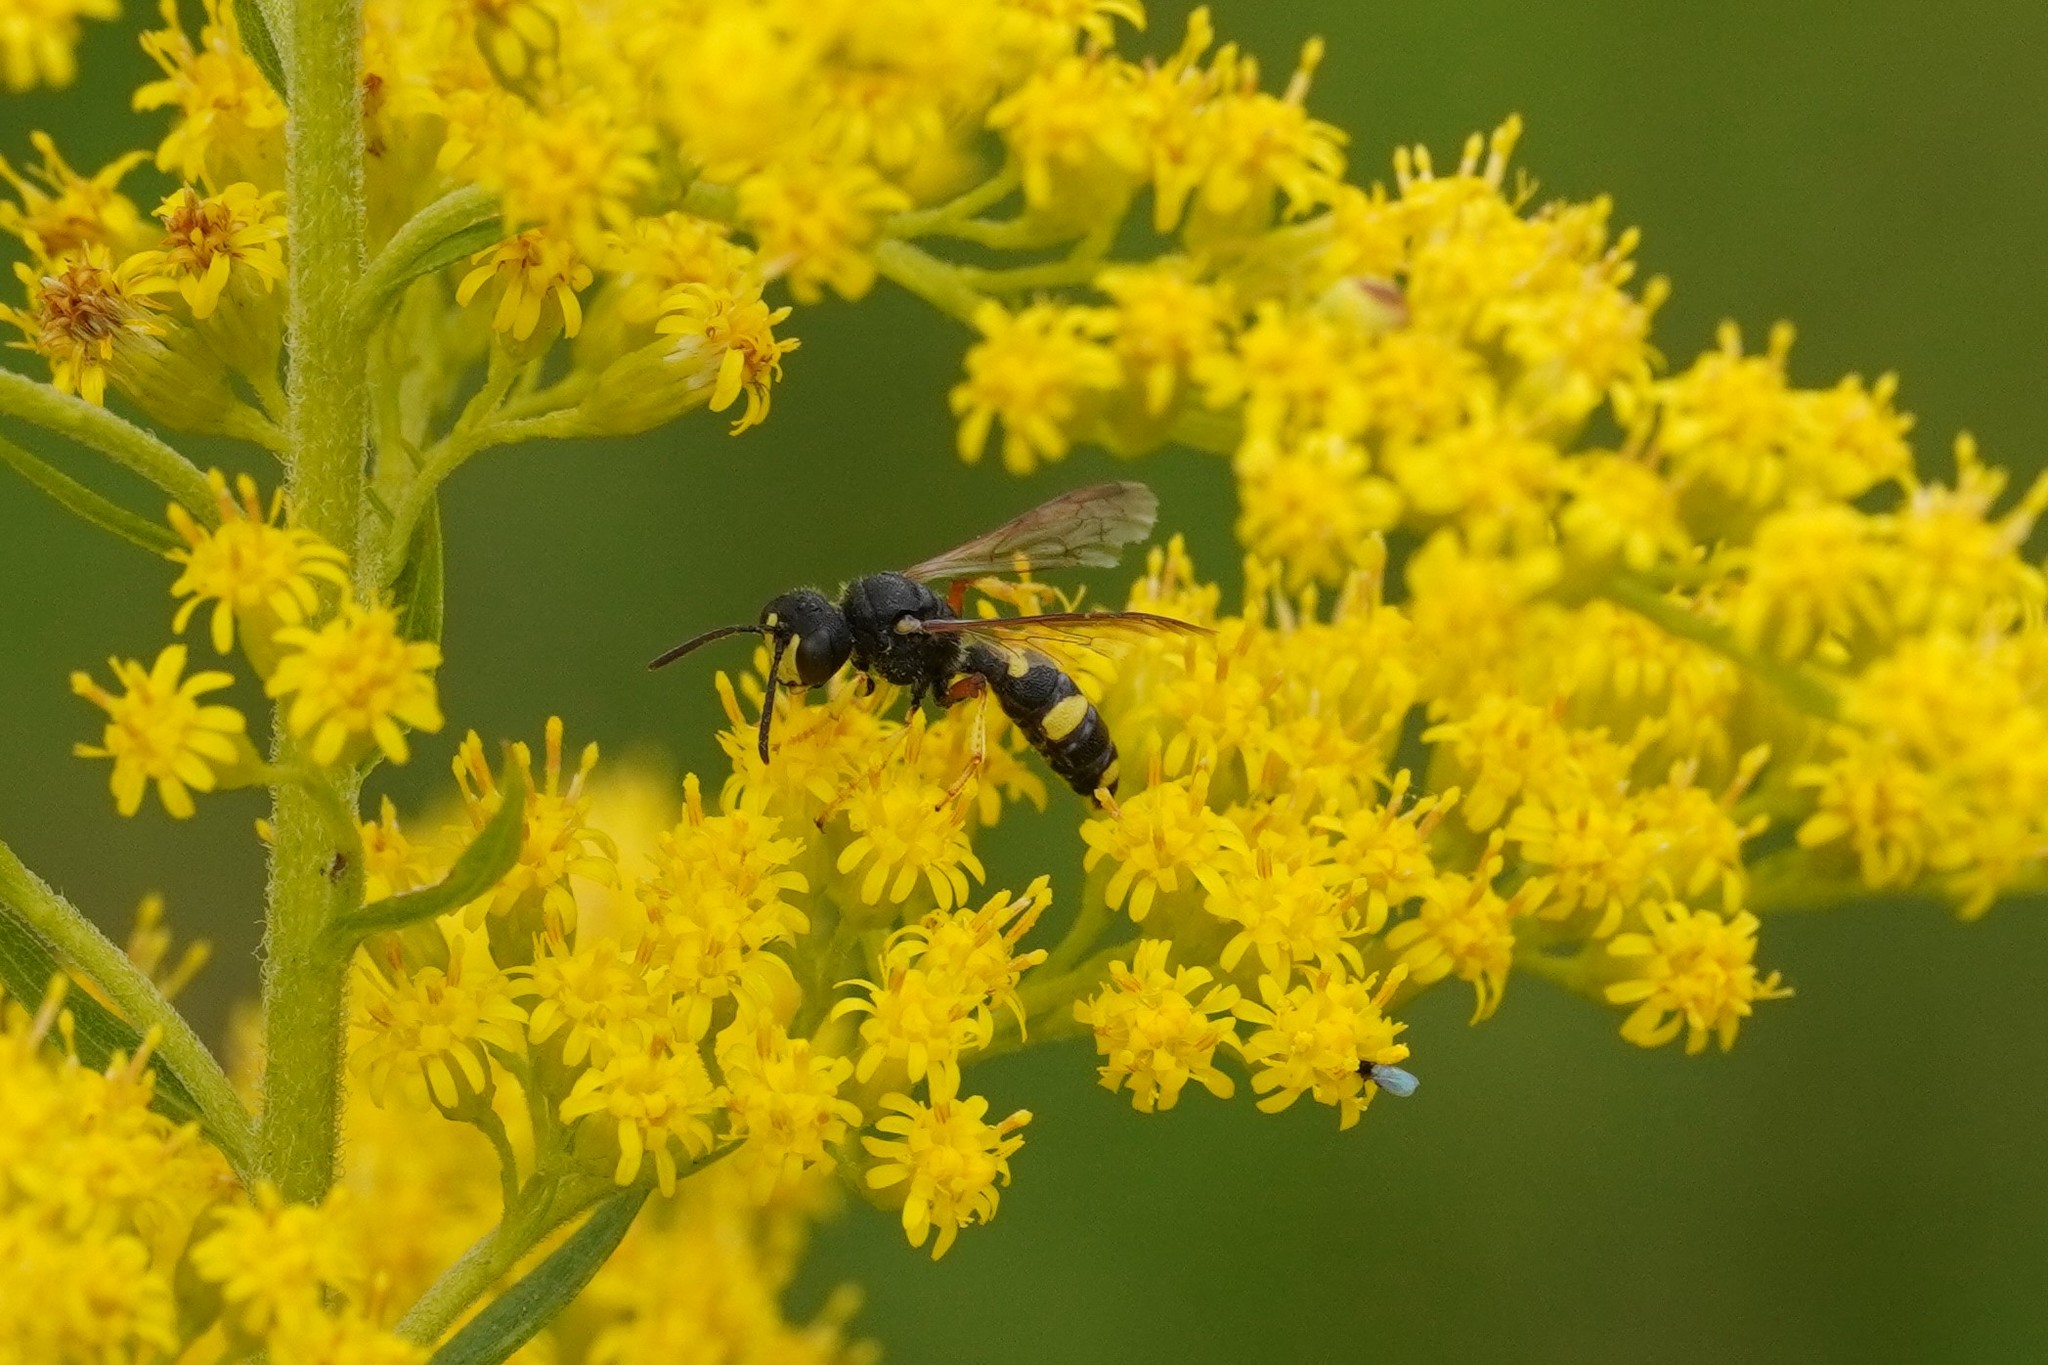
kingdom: Animalia
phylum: Arthropoda
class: Insecta
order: Hymenoptera
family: Crabronidae
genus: Cerceris
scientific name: Cerceris rybyensis
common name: Ornate tailed digger wasp
